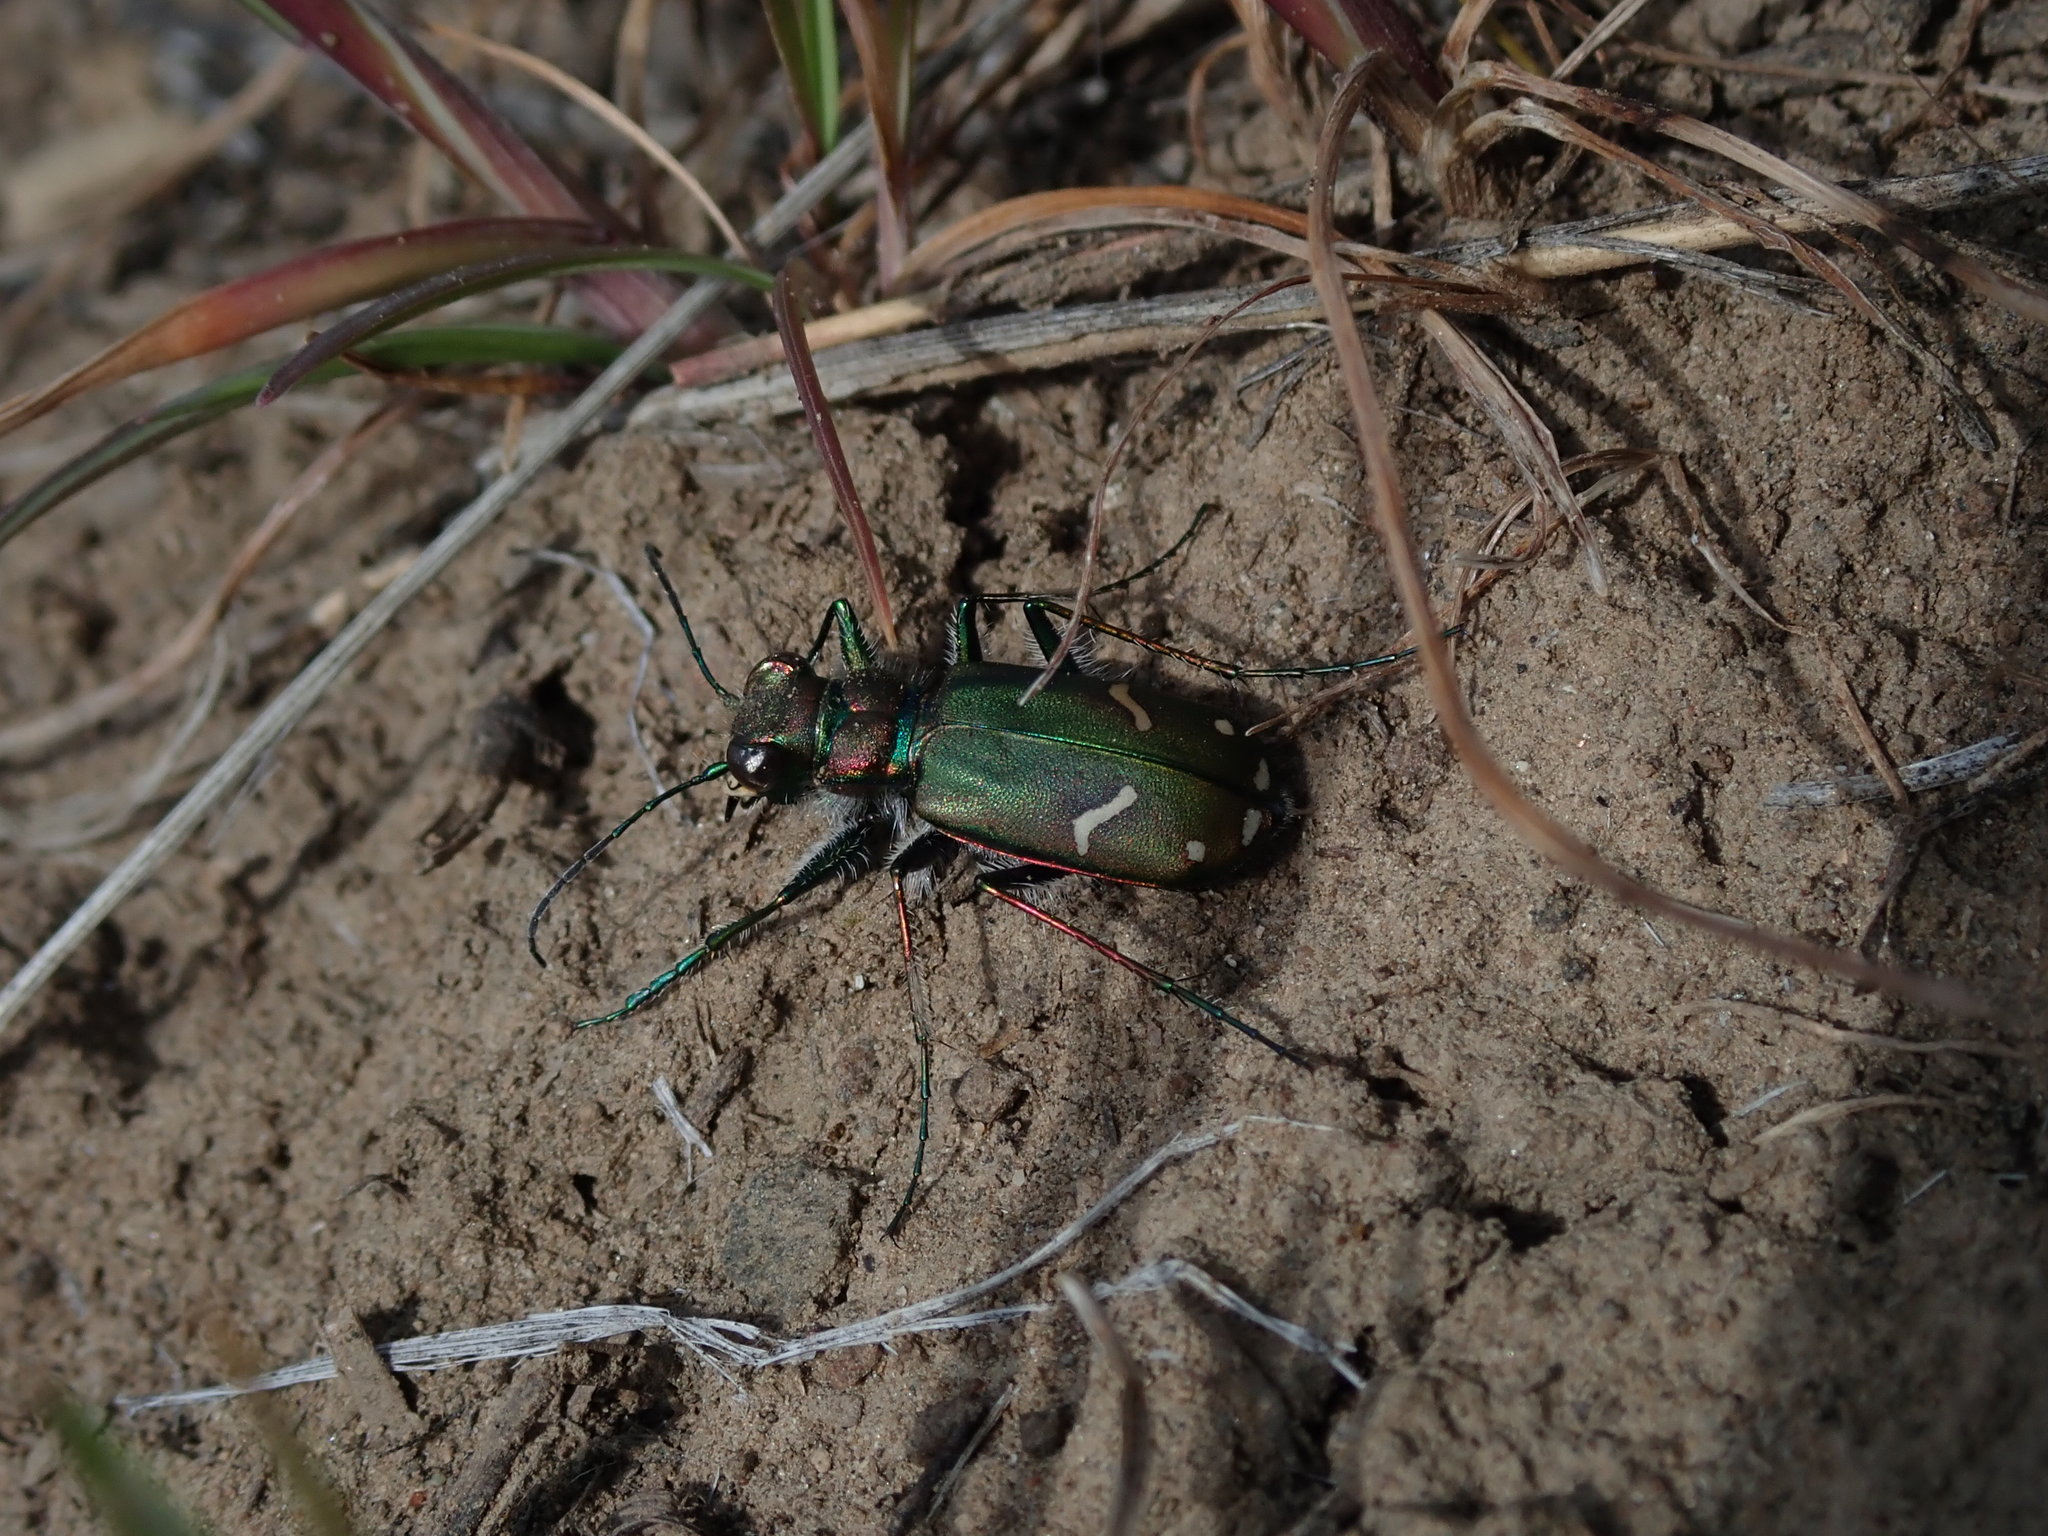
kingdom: Animalia
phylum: Arthropoda
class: Insecta
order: Coleoptera
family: Carabidae
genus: Cicindela
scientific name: Cicindela purpurea
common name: Cow path tiger beetle
